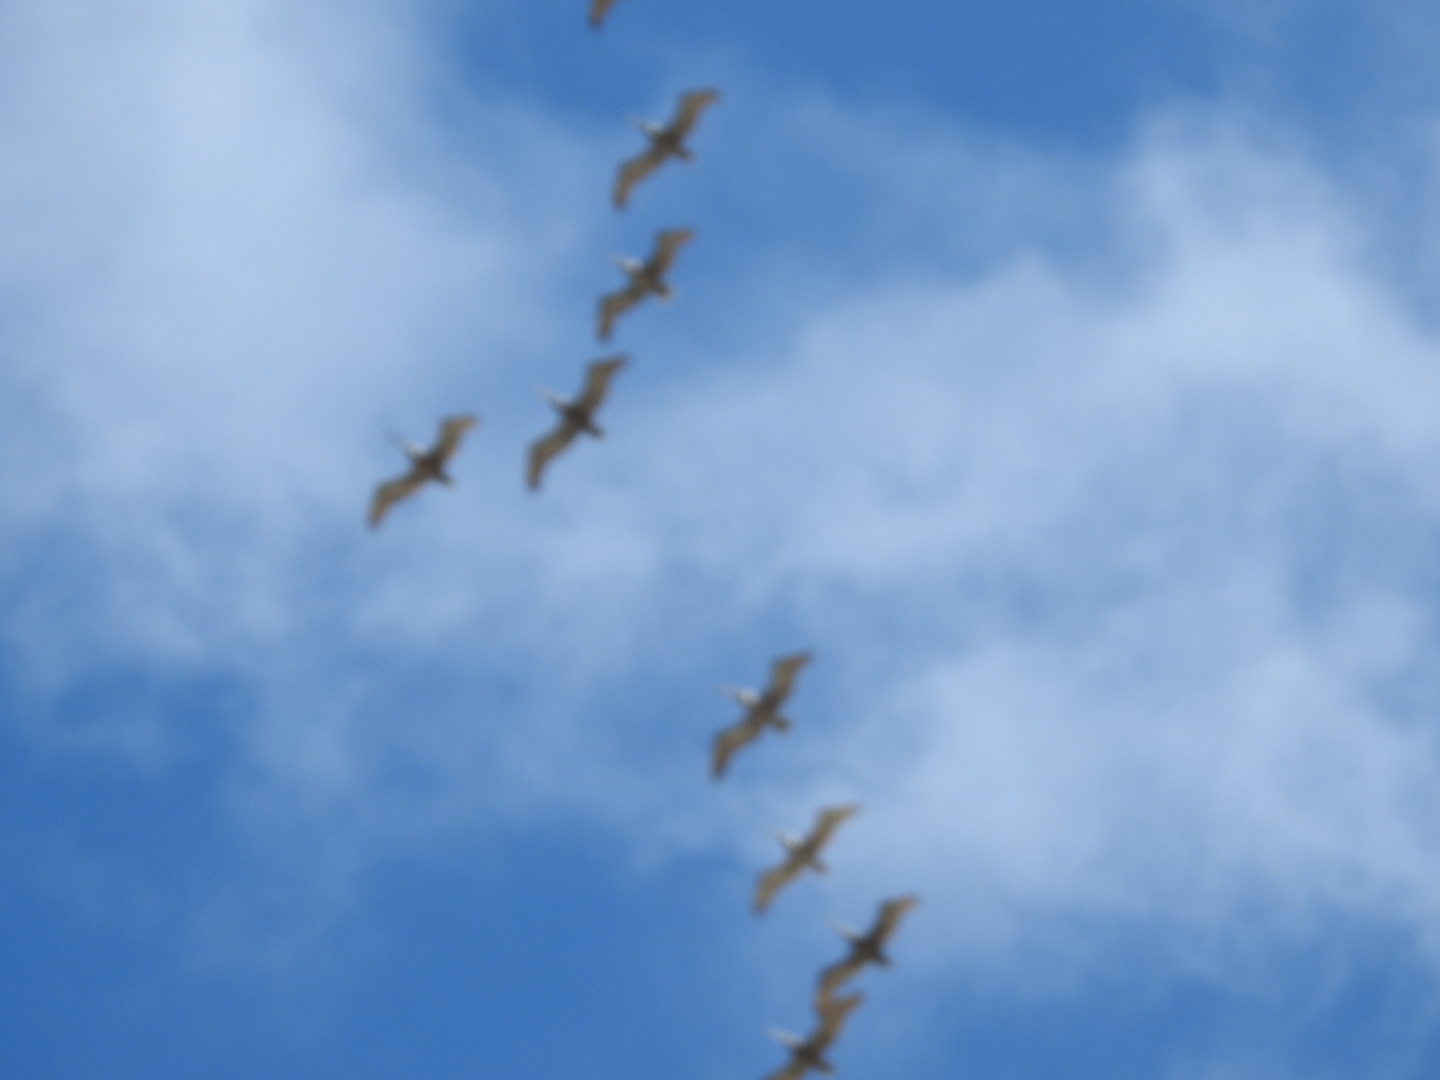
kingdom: Animalia
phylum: Chordata
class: Aves
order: Pelecaniformes
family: Pelecanidae
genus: Pelecanus
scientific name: Pelecanus occidentalis
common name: Brown pelican
